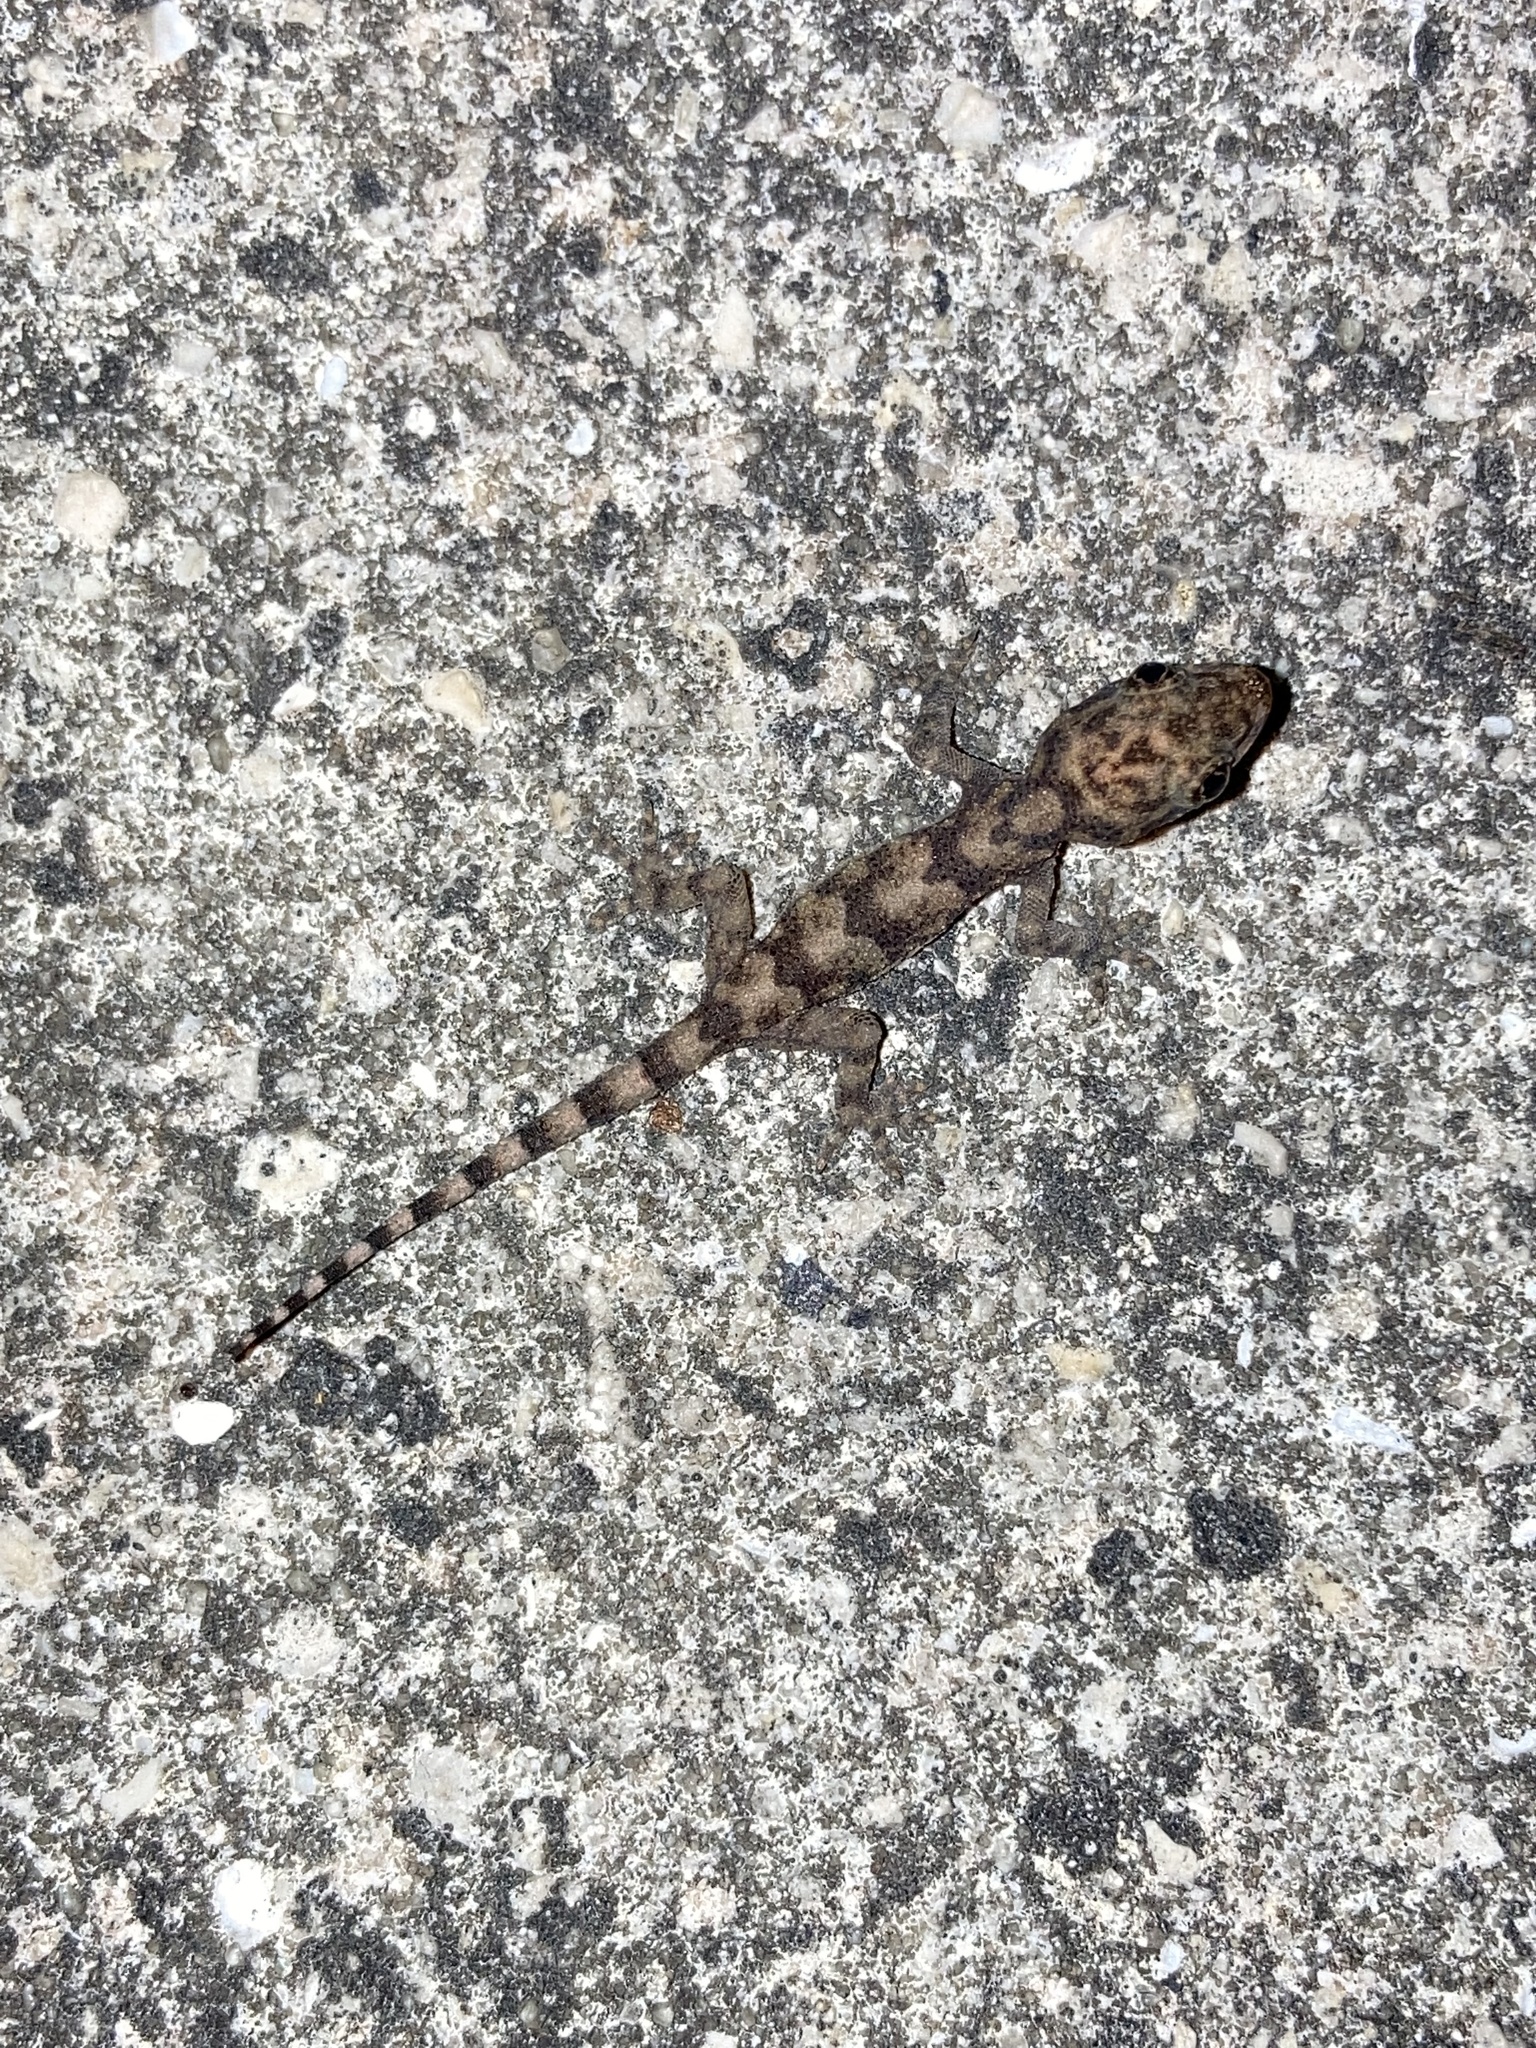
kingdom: Animalia
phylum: Chordata
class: Squamata
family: Gekkonidae
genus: Hemidactylus
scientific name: Hemidactylus mabouia
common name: House gecko
